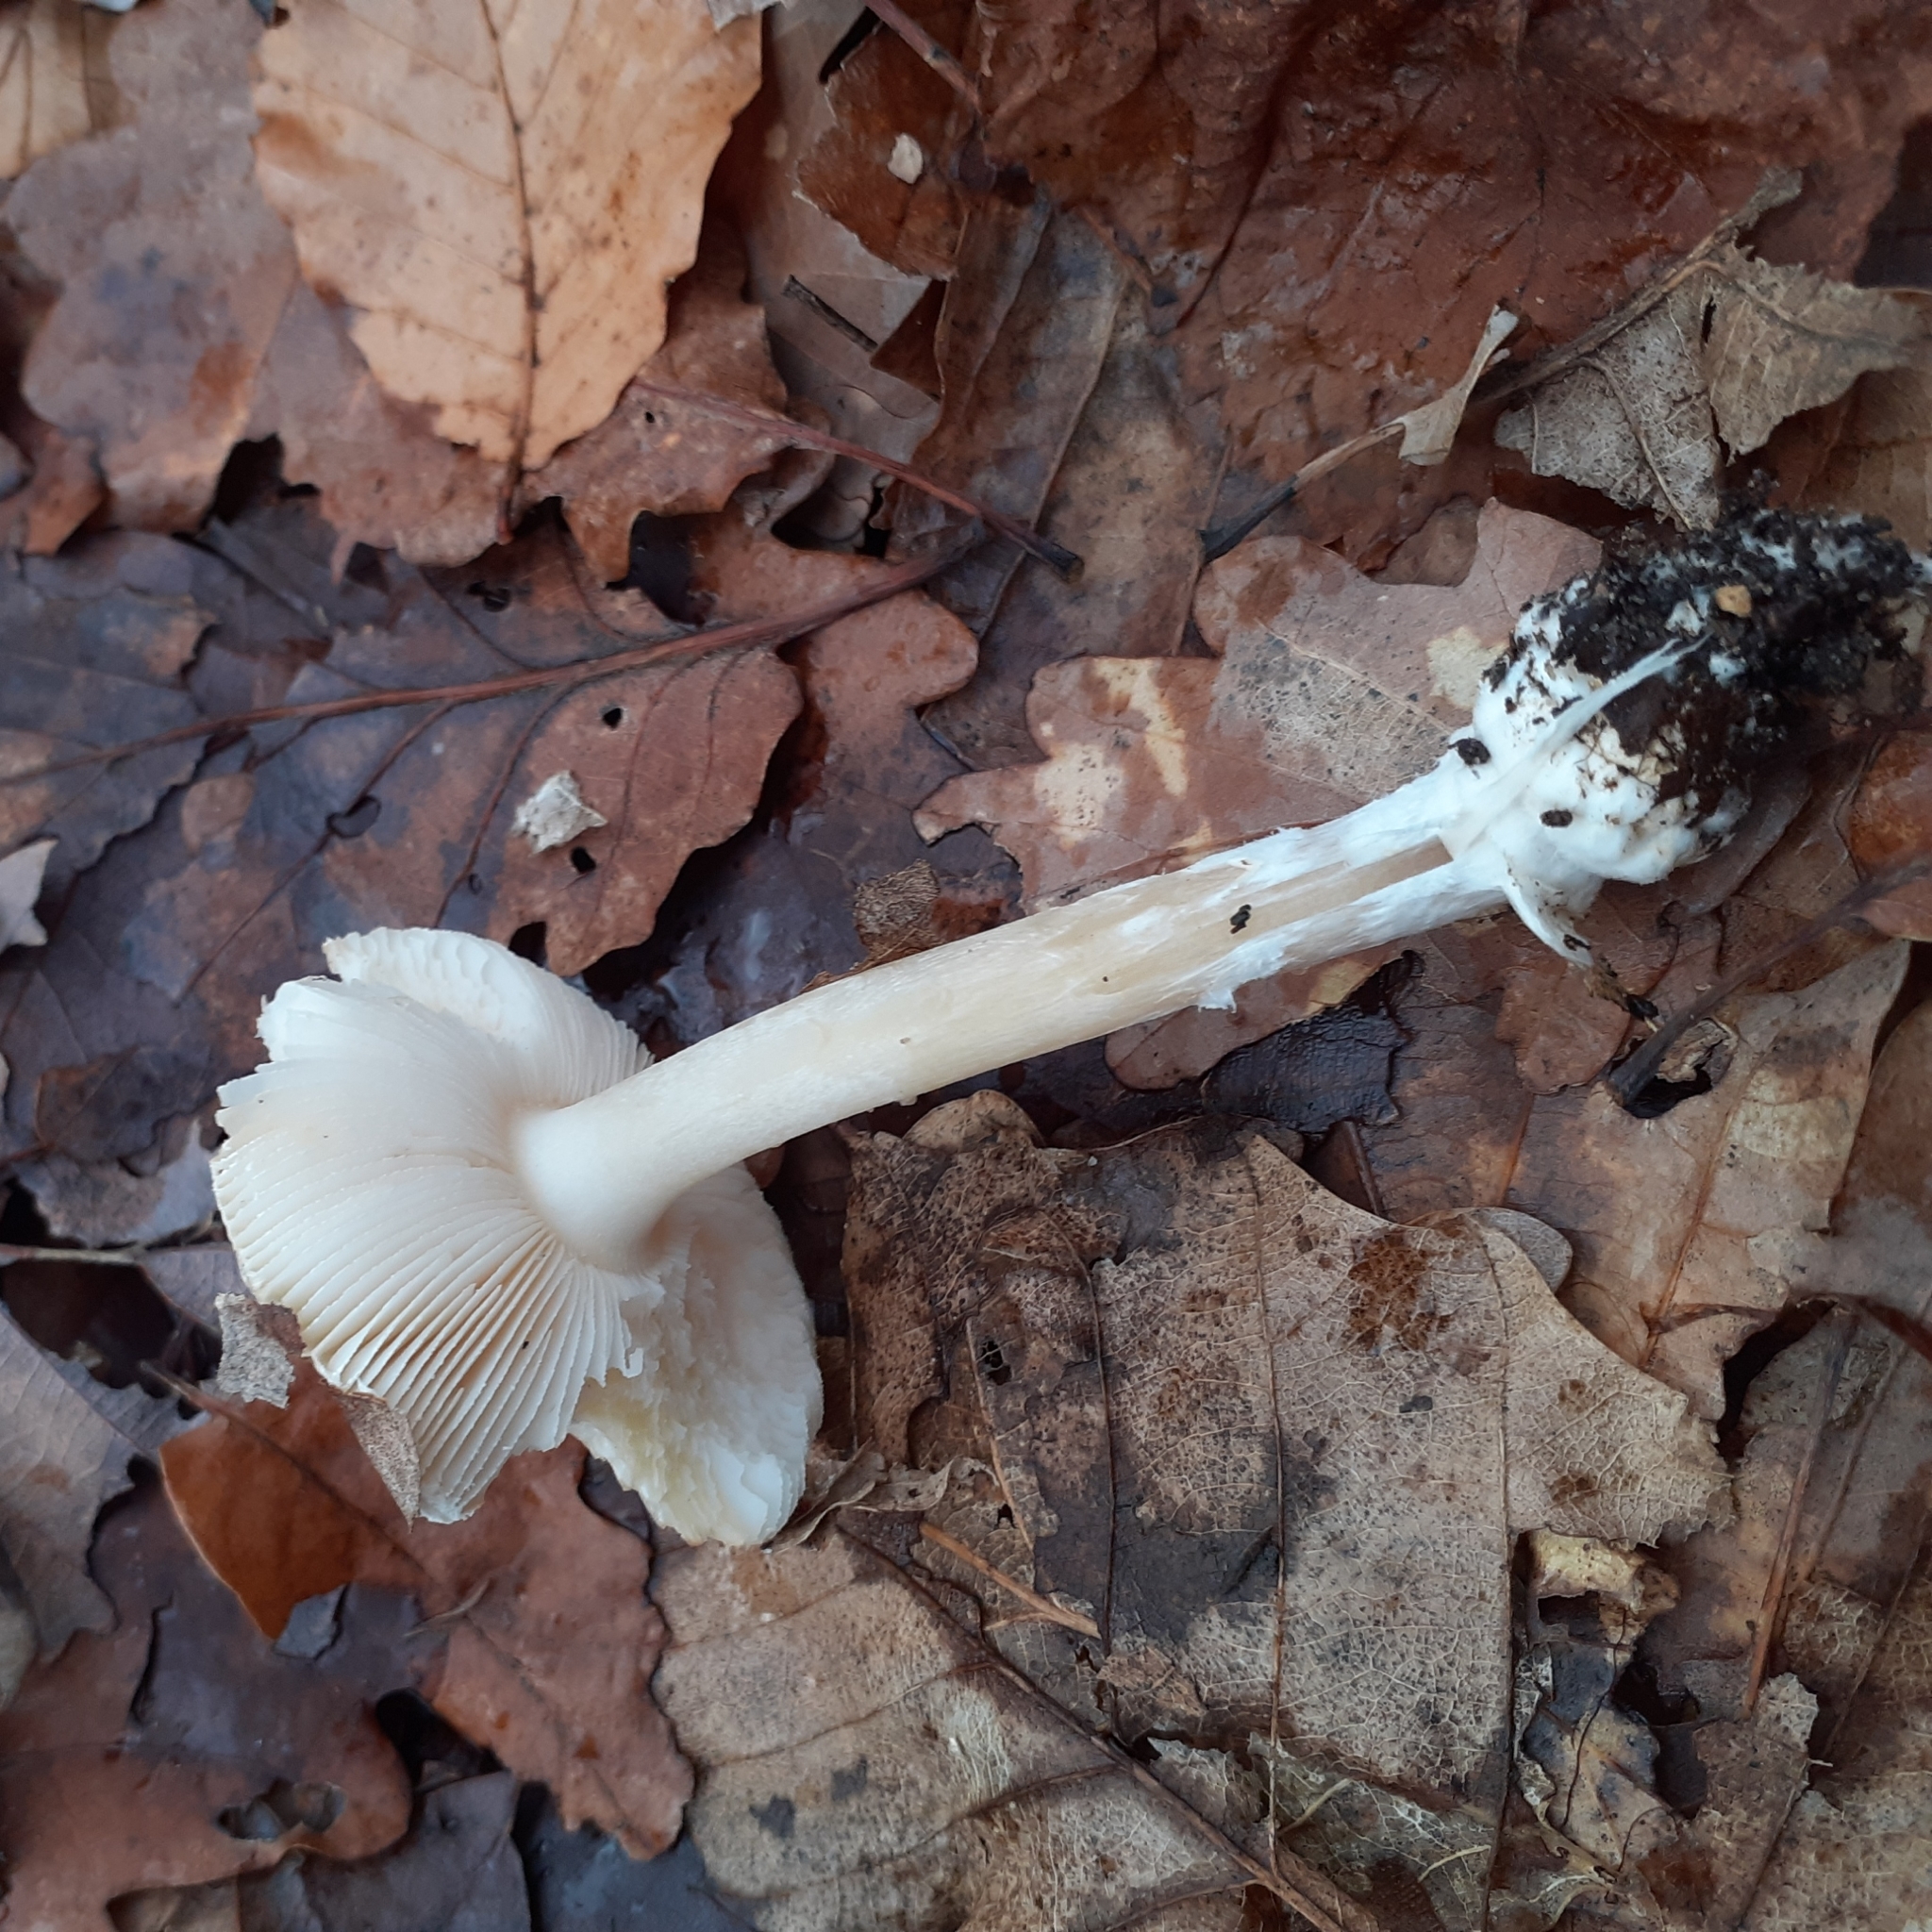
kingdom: Fungi
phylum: Basidiomycota
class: Agaricomycetes
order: Agaricales
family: Amanitaceae
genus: Amanita
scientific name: Amanita gemmata
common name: Jewelled amanita
